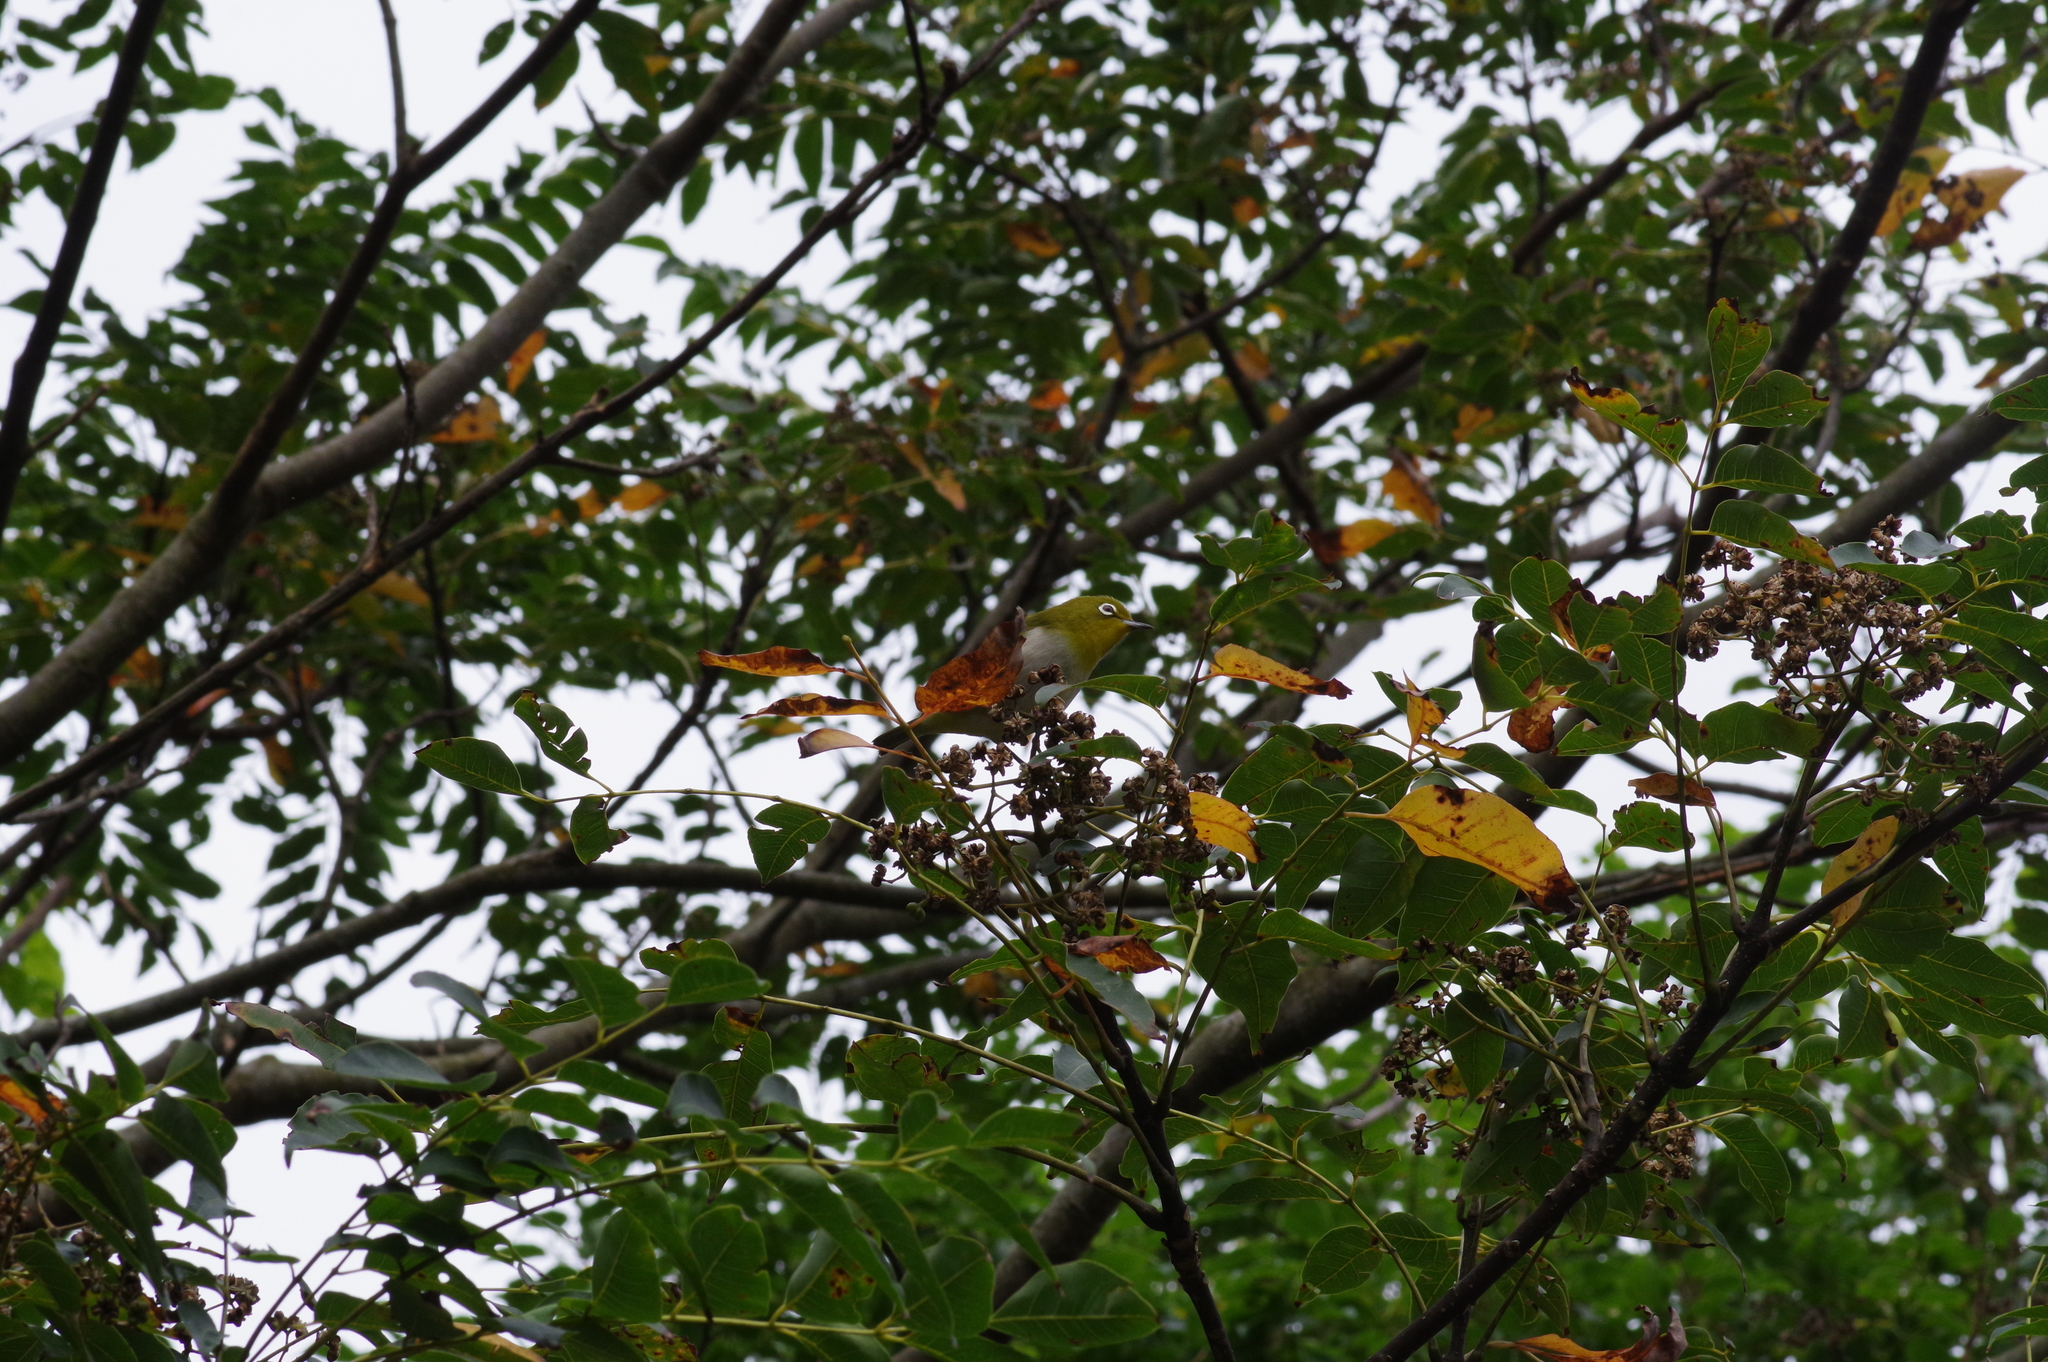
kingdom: Animalia
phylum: Chordata
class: Aves
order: Passeriformes
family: Zosteropidae
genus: Zosterops
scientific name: Zosterops japonicus
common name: Japanese white-eye
